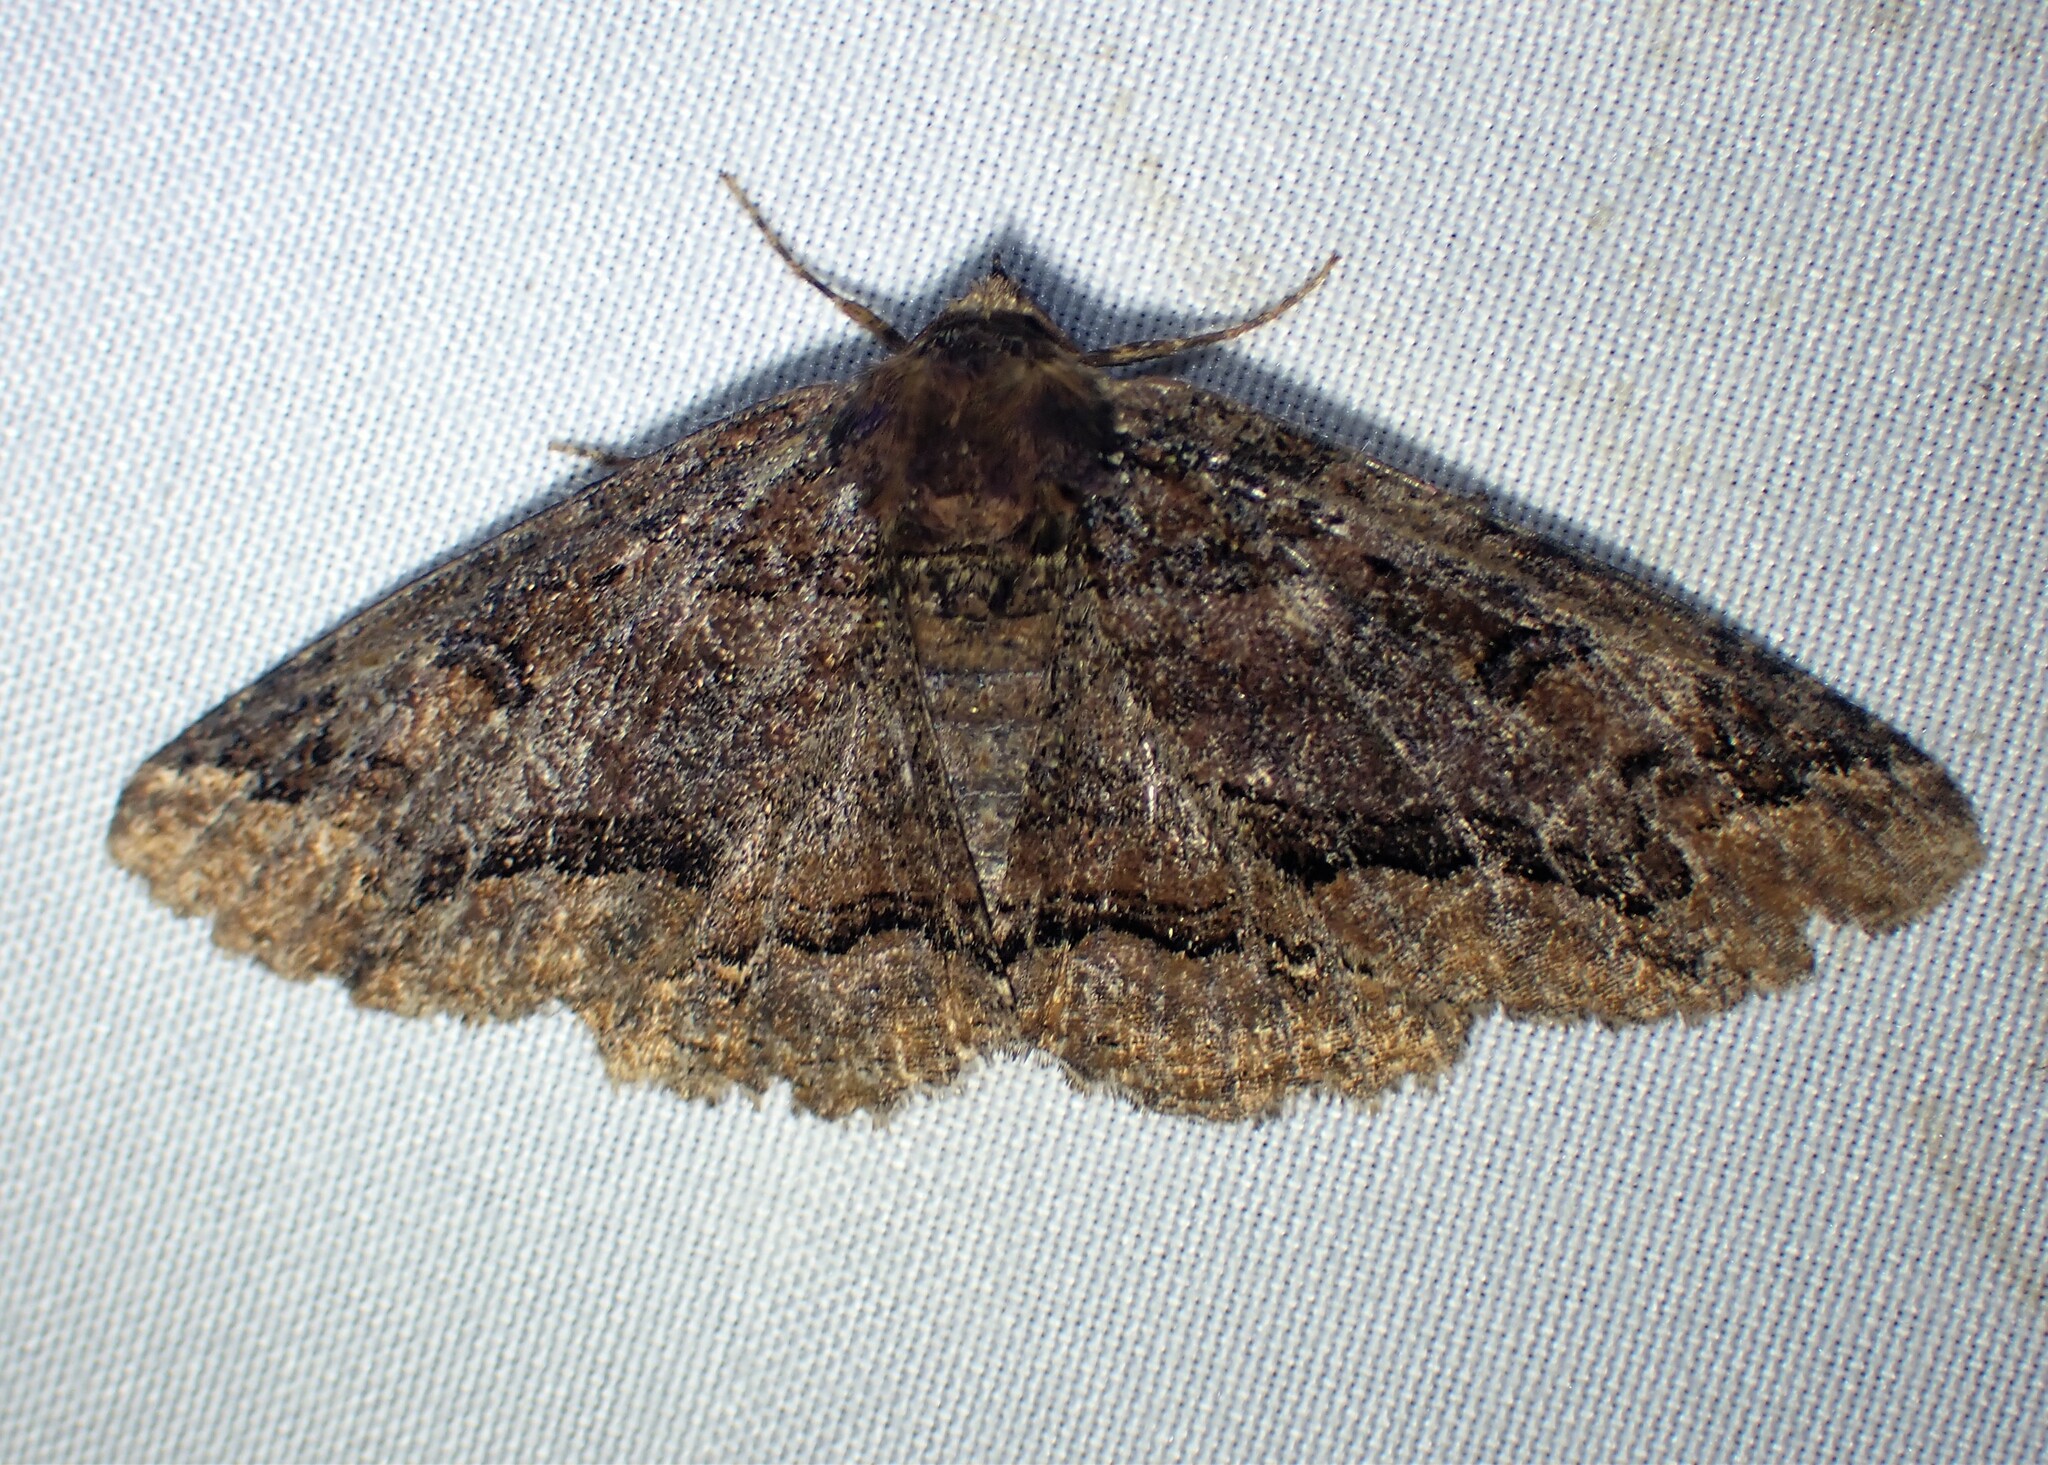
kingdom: Animalia
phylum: Arthropoda
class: Insecta
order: Lepidoptera
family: Erebidae
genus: Zale
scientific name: Zale minerea
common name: Colorful zale moth
